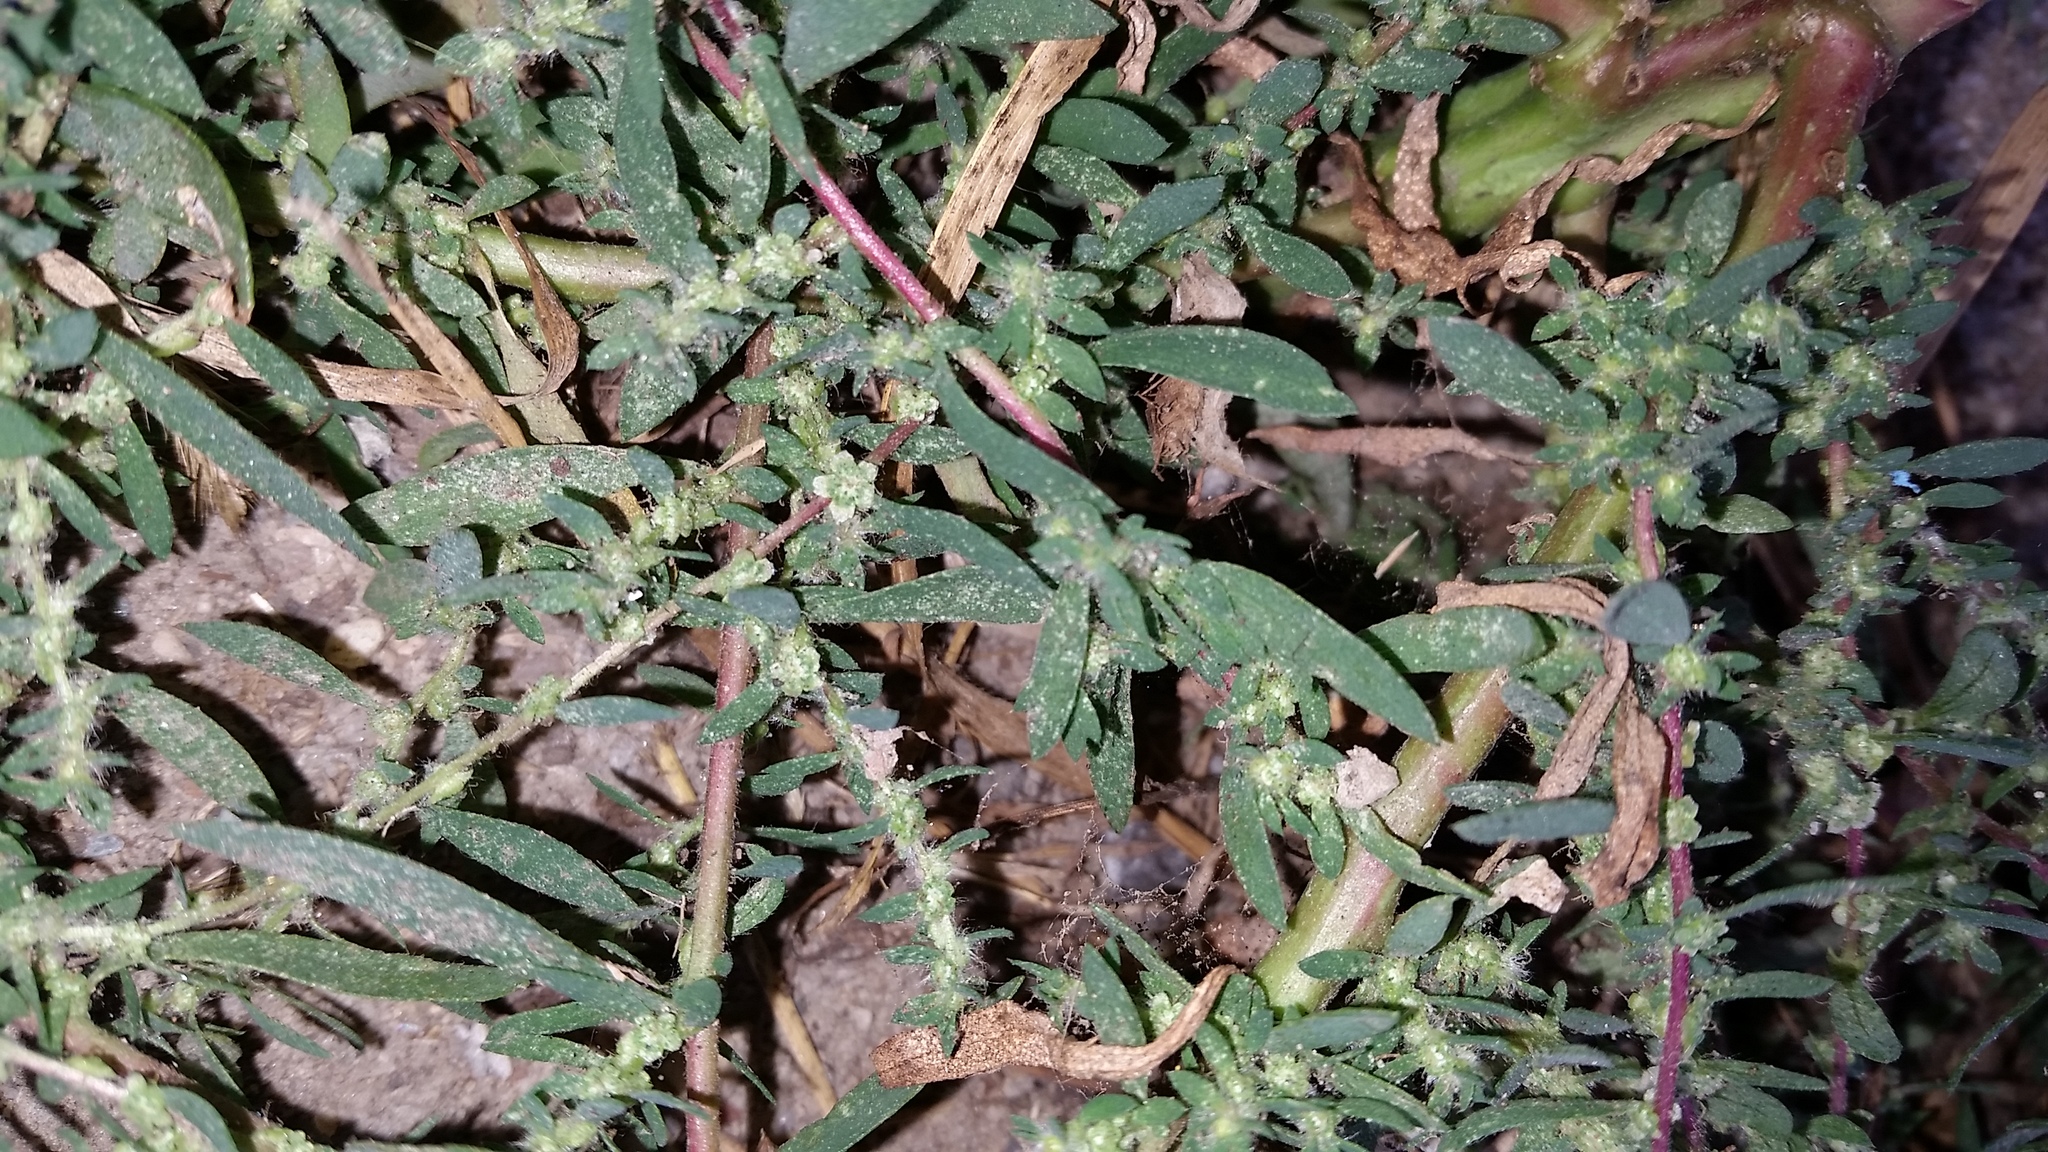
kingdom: Plantae
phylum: Tracheophyta
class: Magnoliopsida
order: Caryophyllales
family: Amaranthaceae
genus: Bassia
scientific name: Bassia scoparia
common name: Belvedere
